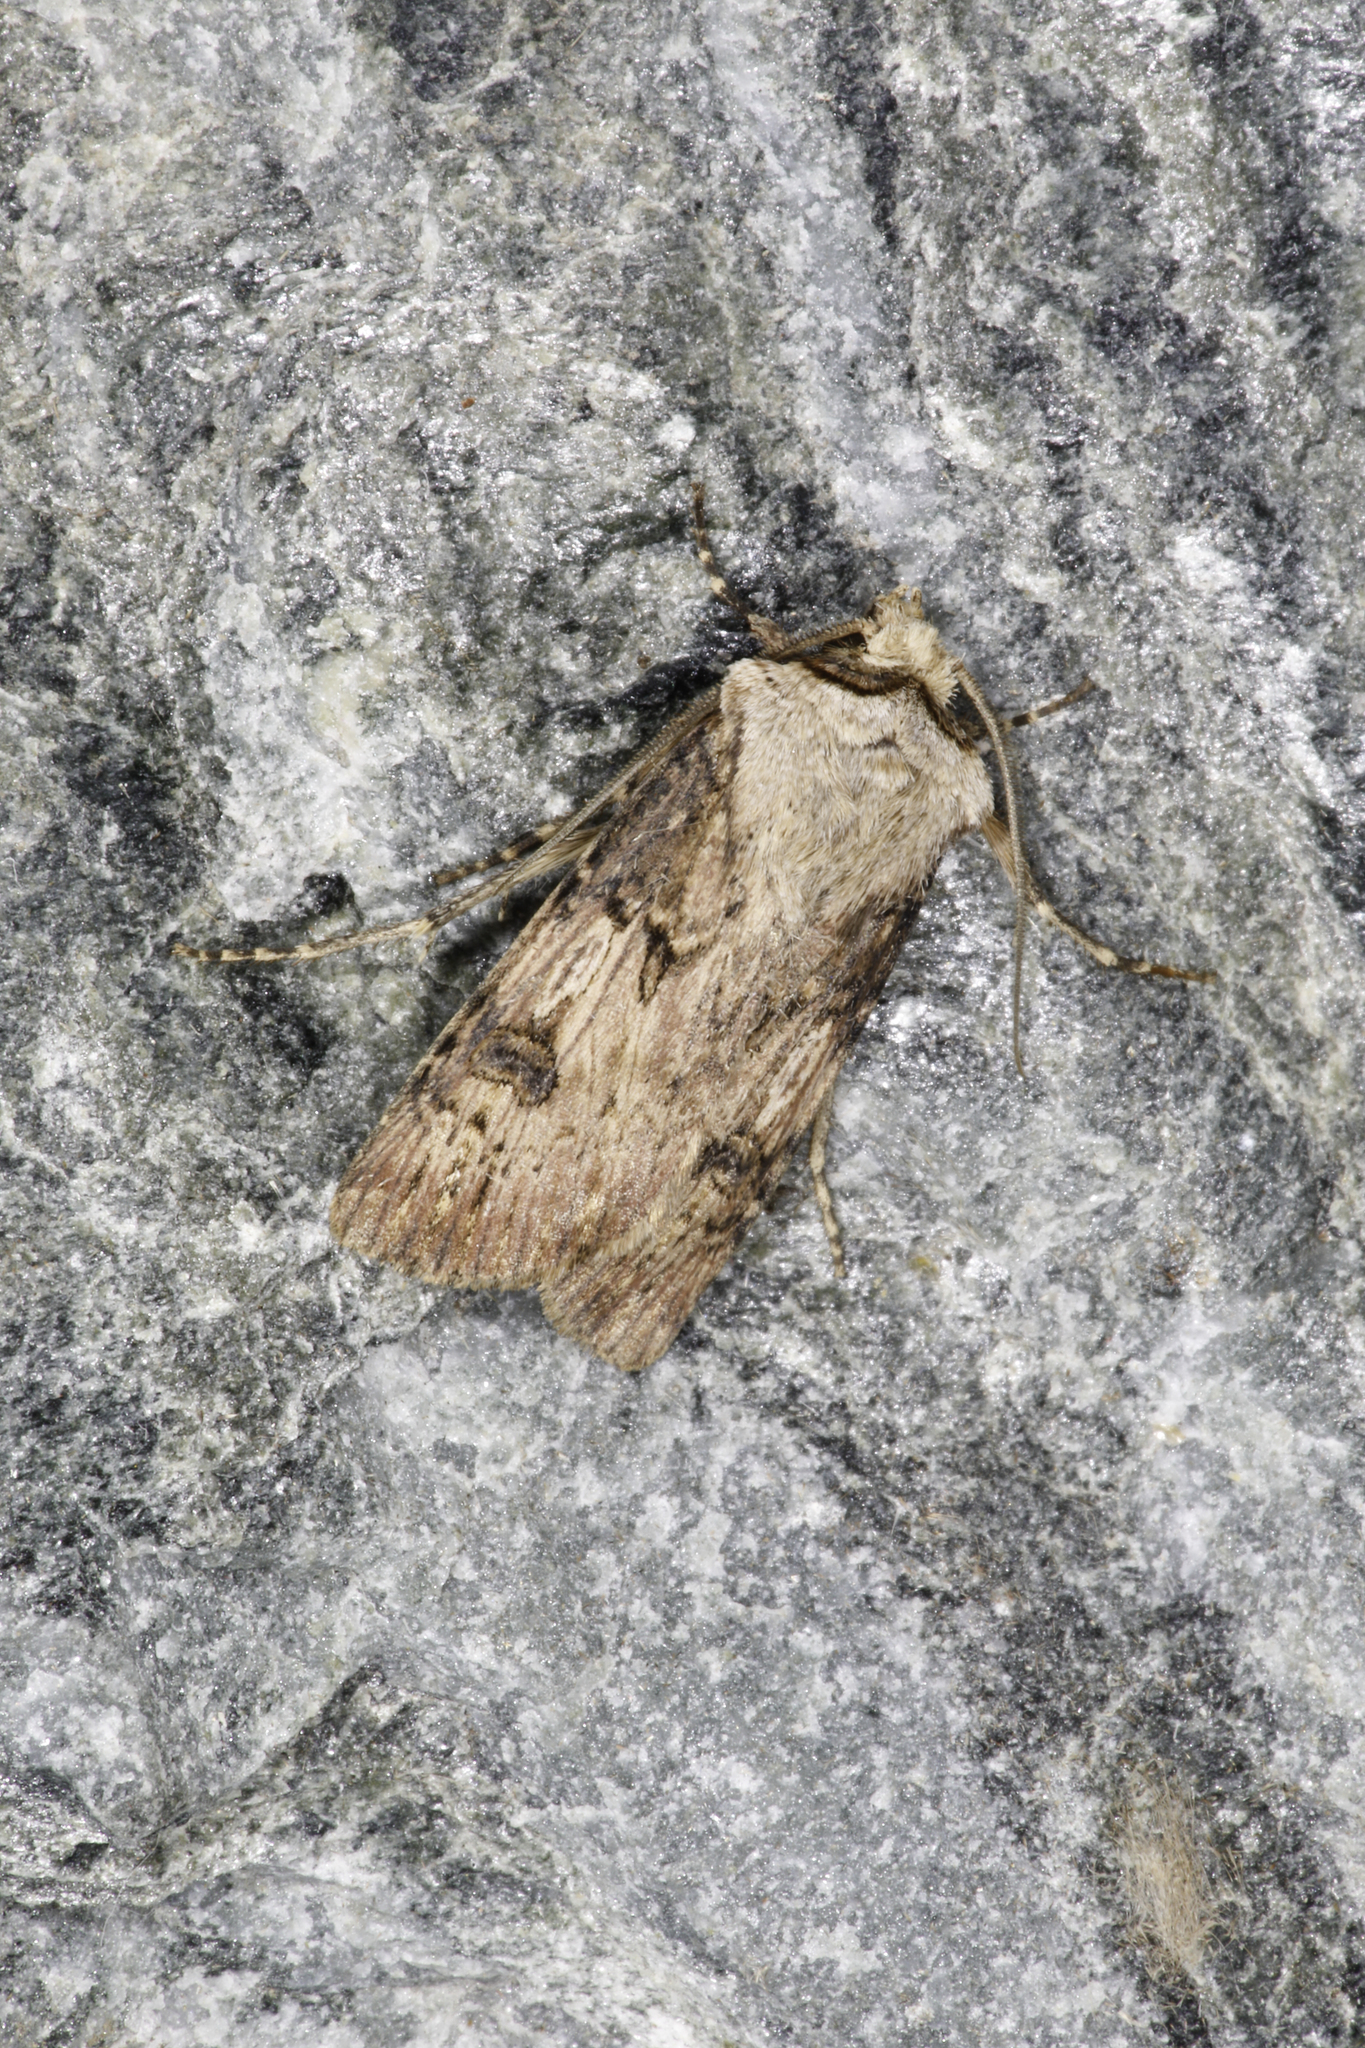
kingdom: Animalia
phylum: Arthropoda
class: Insecta
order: Lepidoptera
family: Noctuidae
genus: Agrotis
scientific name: Agrotis puta
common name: Shuttle-shaped dart
